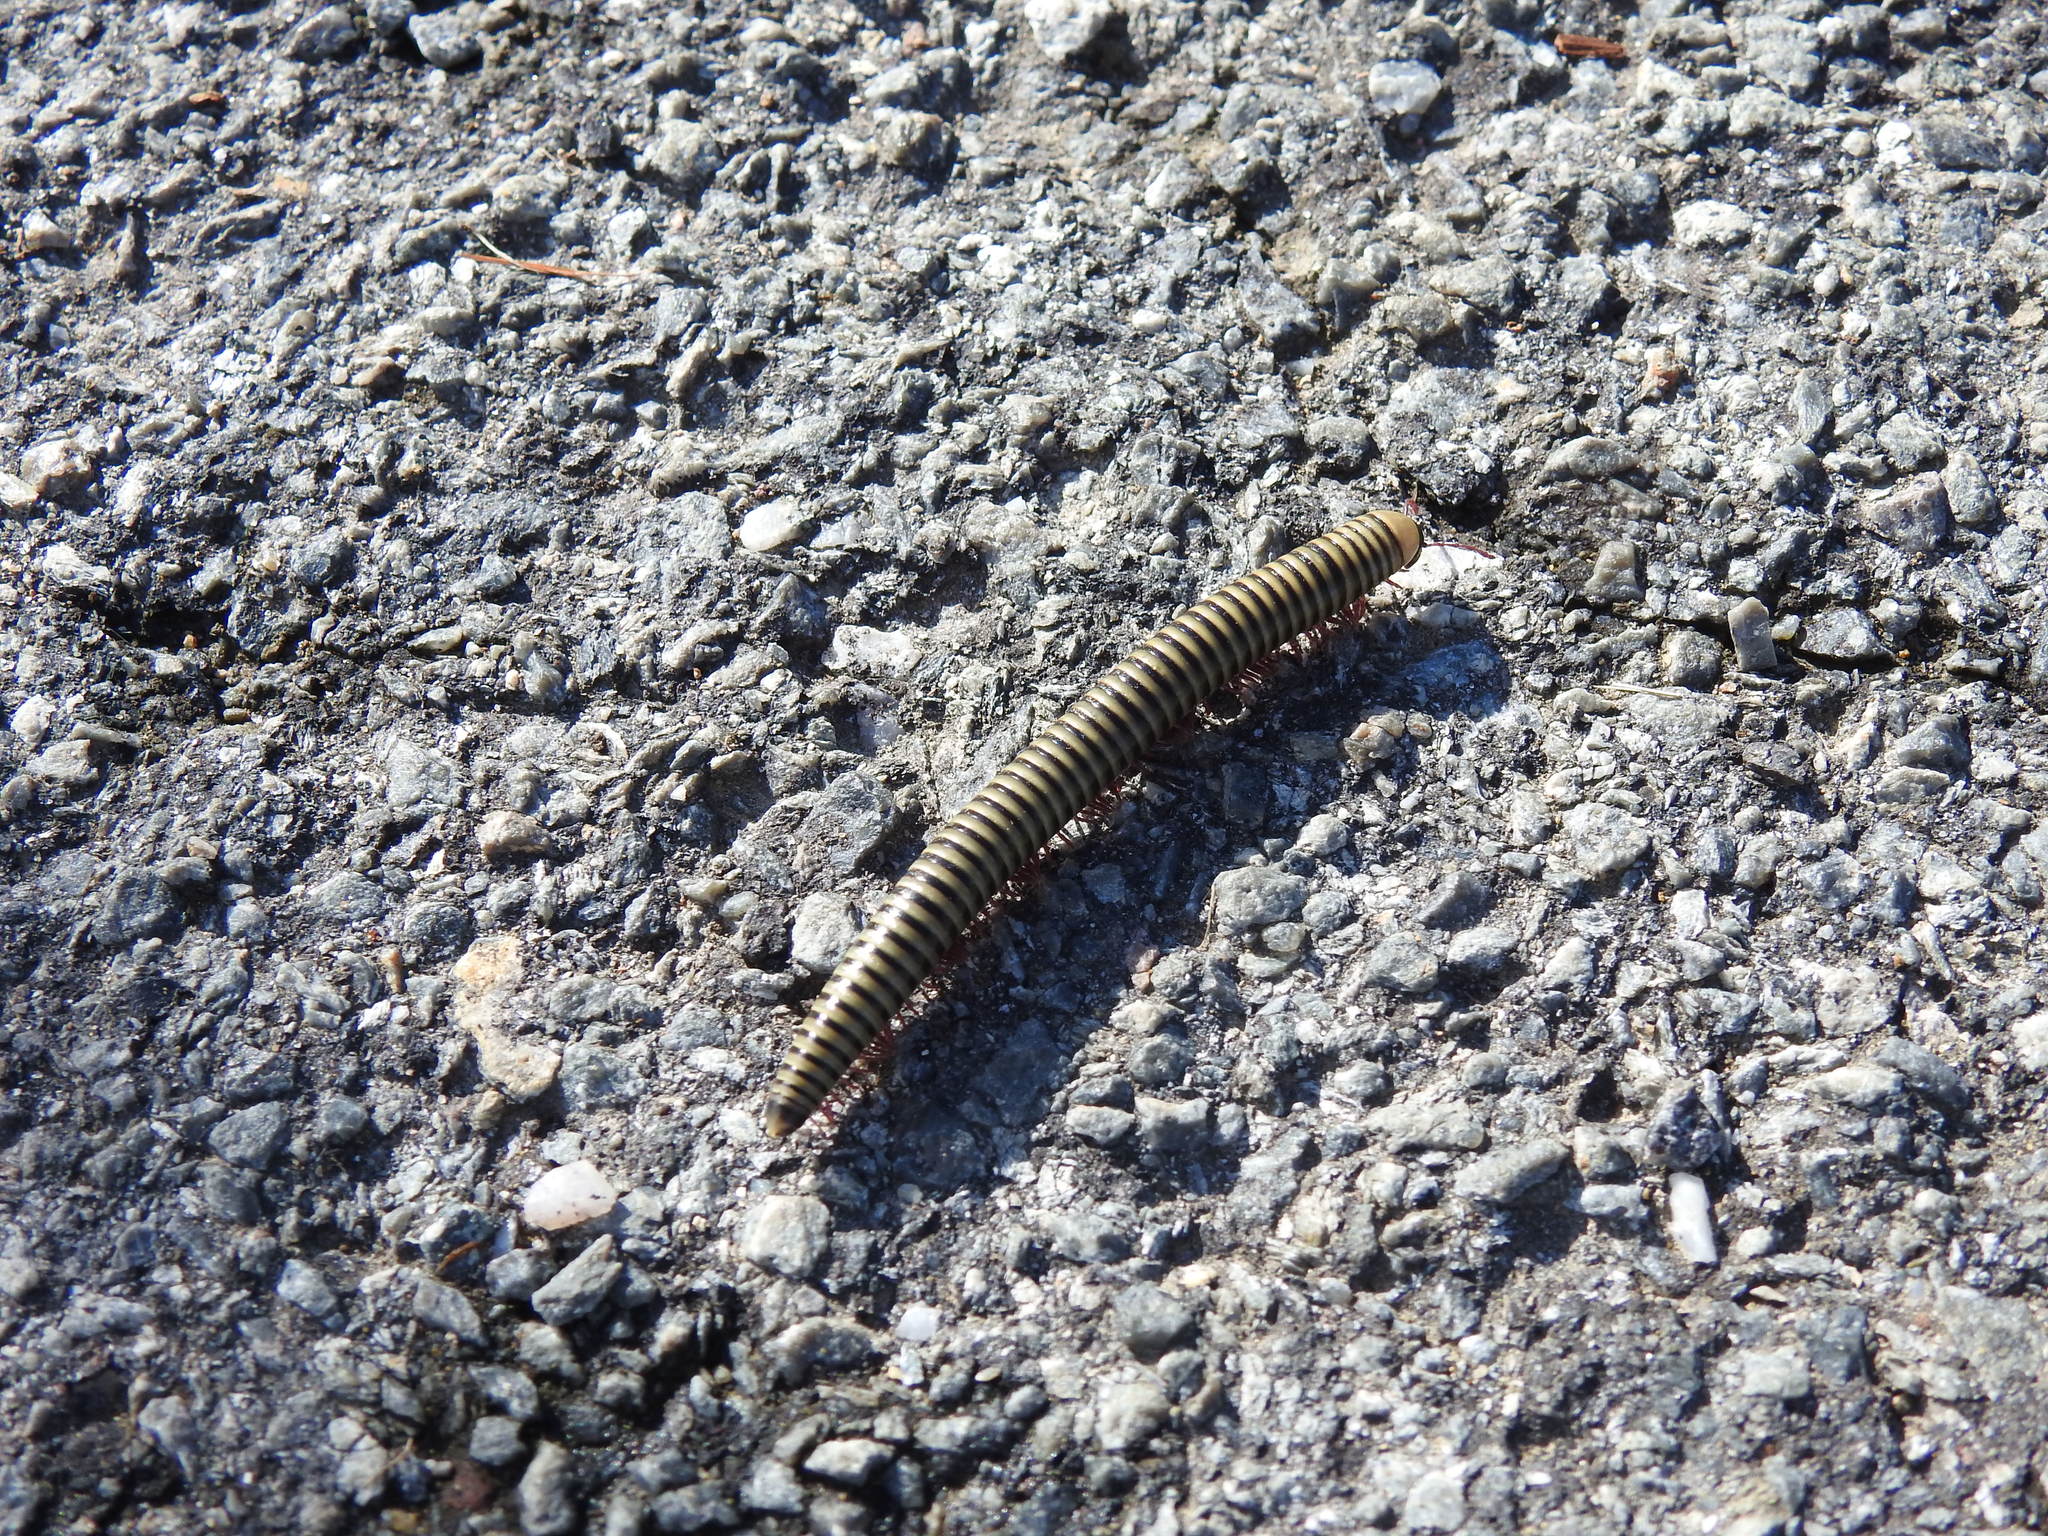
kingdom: Animalia
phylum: Arthropoda
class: Diplopoda
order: Julida
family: Julidae
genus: Ommatoiulus
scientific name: Ommatoiulus lusitanus
